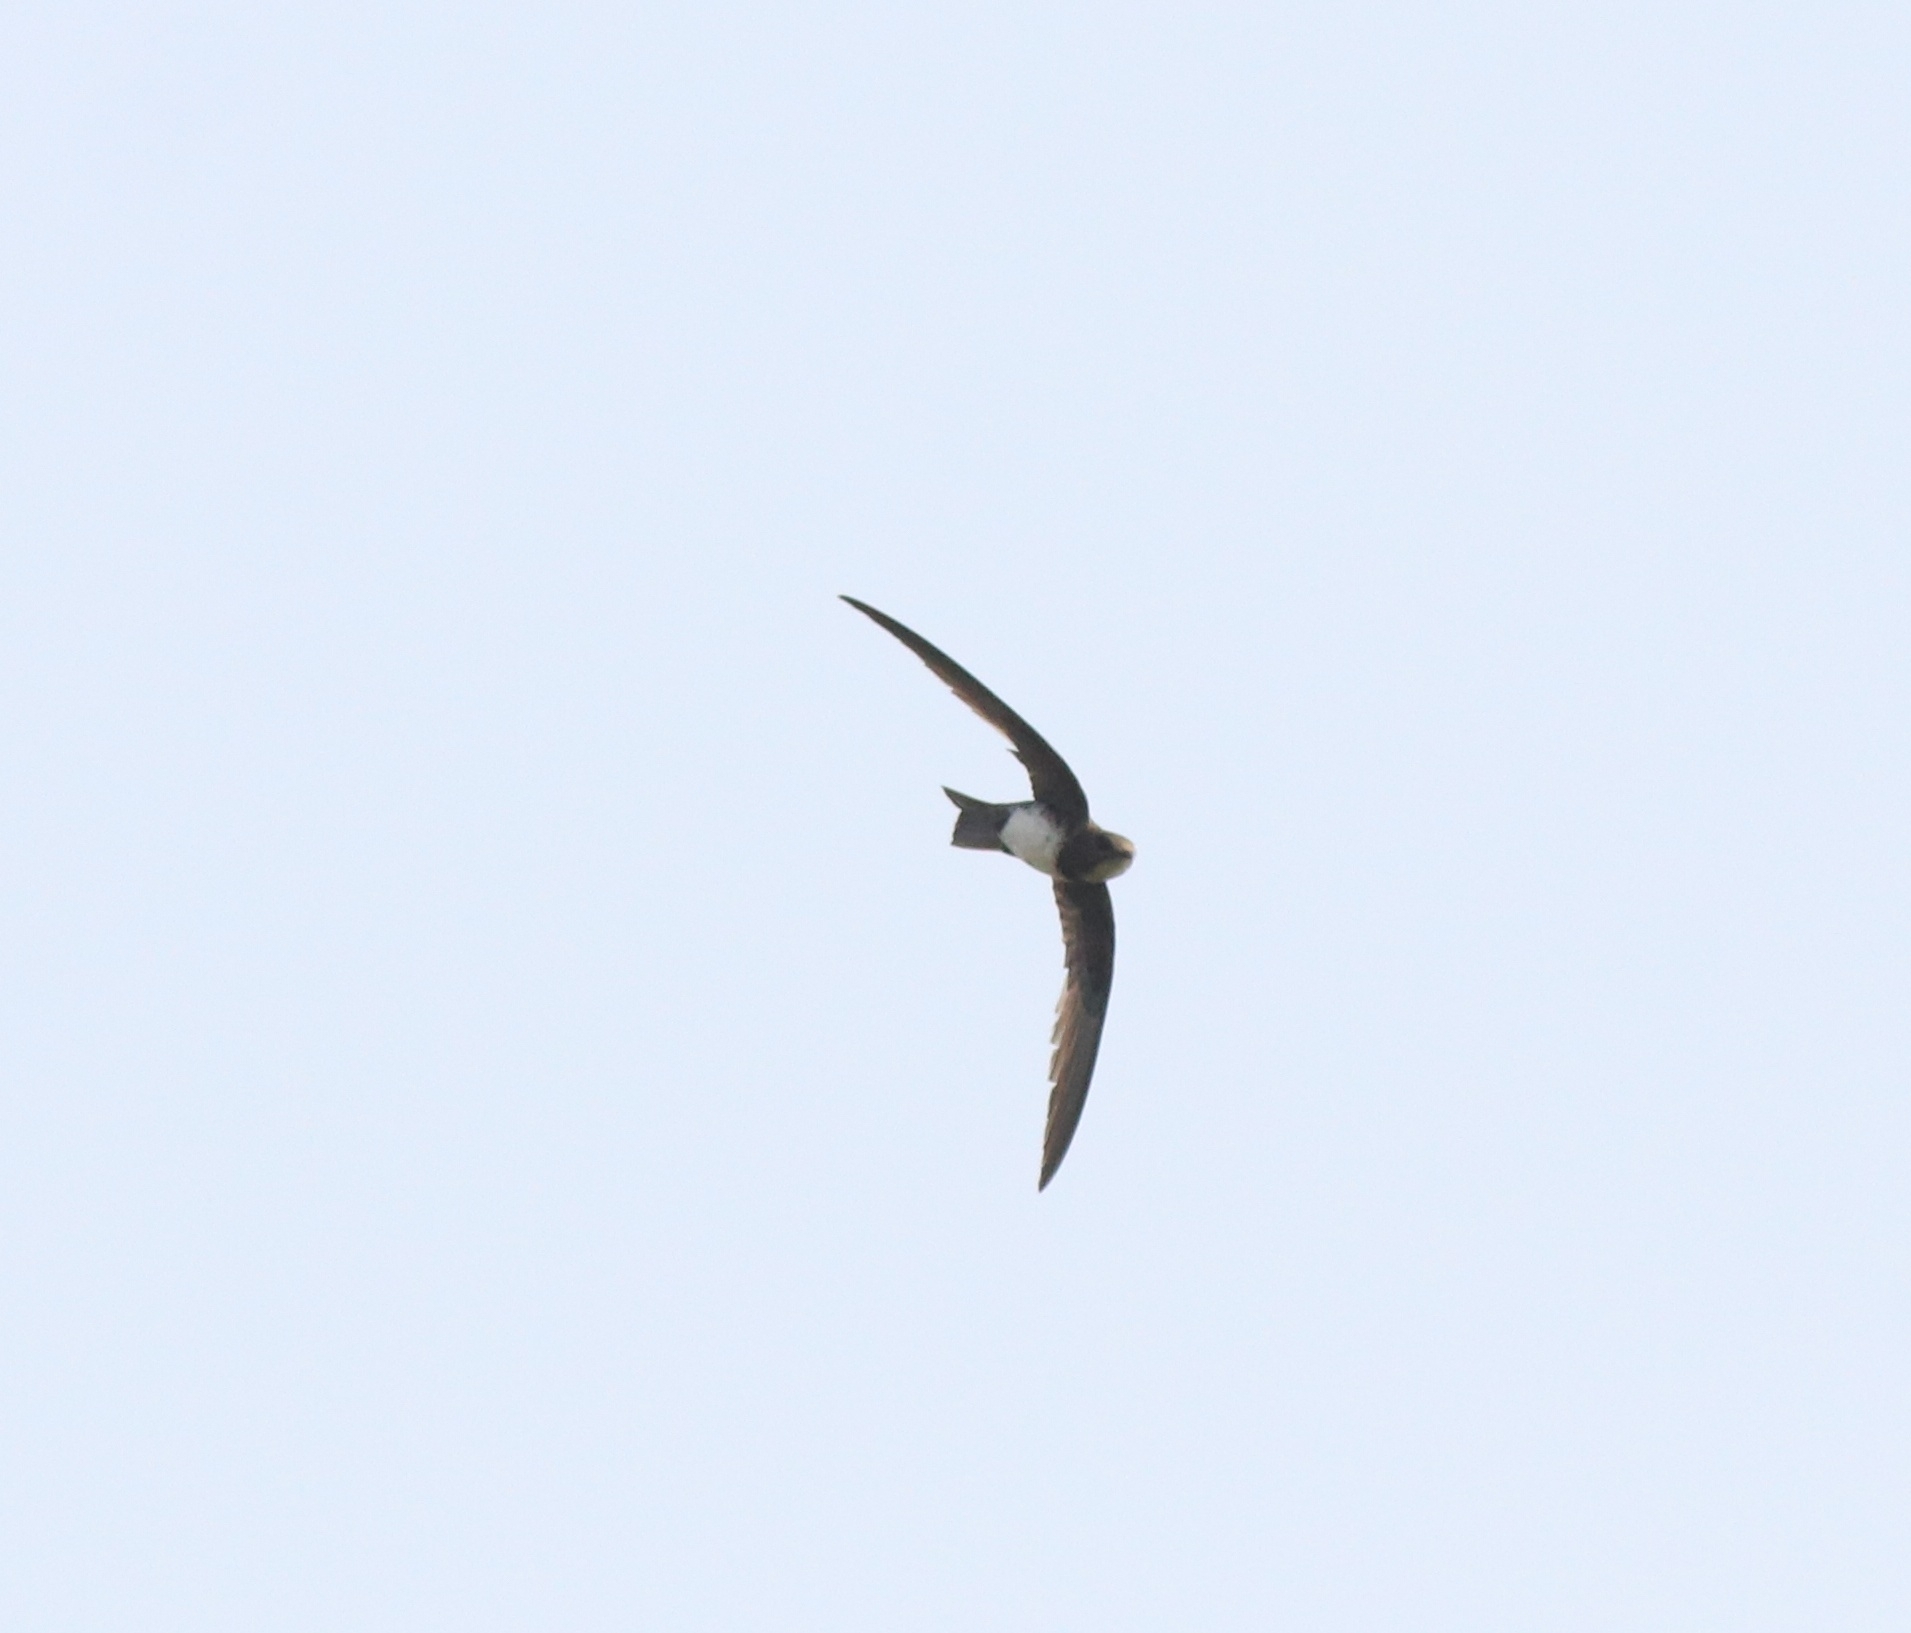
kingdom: Animalia
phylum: Chordata
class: Aves
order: Apodiformes
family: Apodidae
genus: Tachymarptis
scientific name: Tachymarptis melba
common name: Alpine swift
